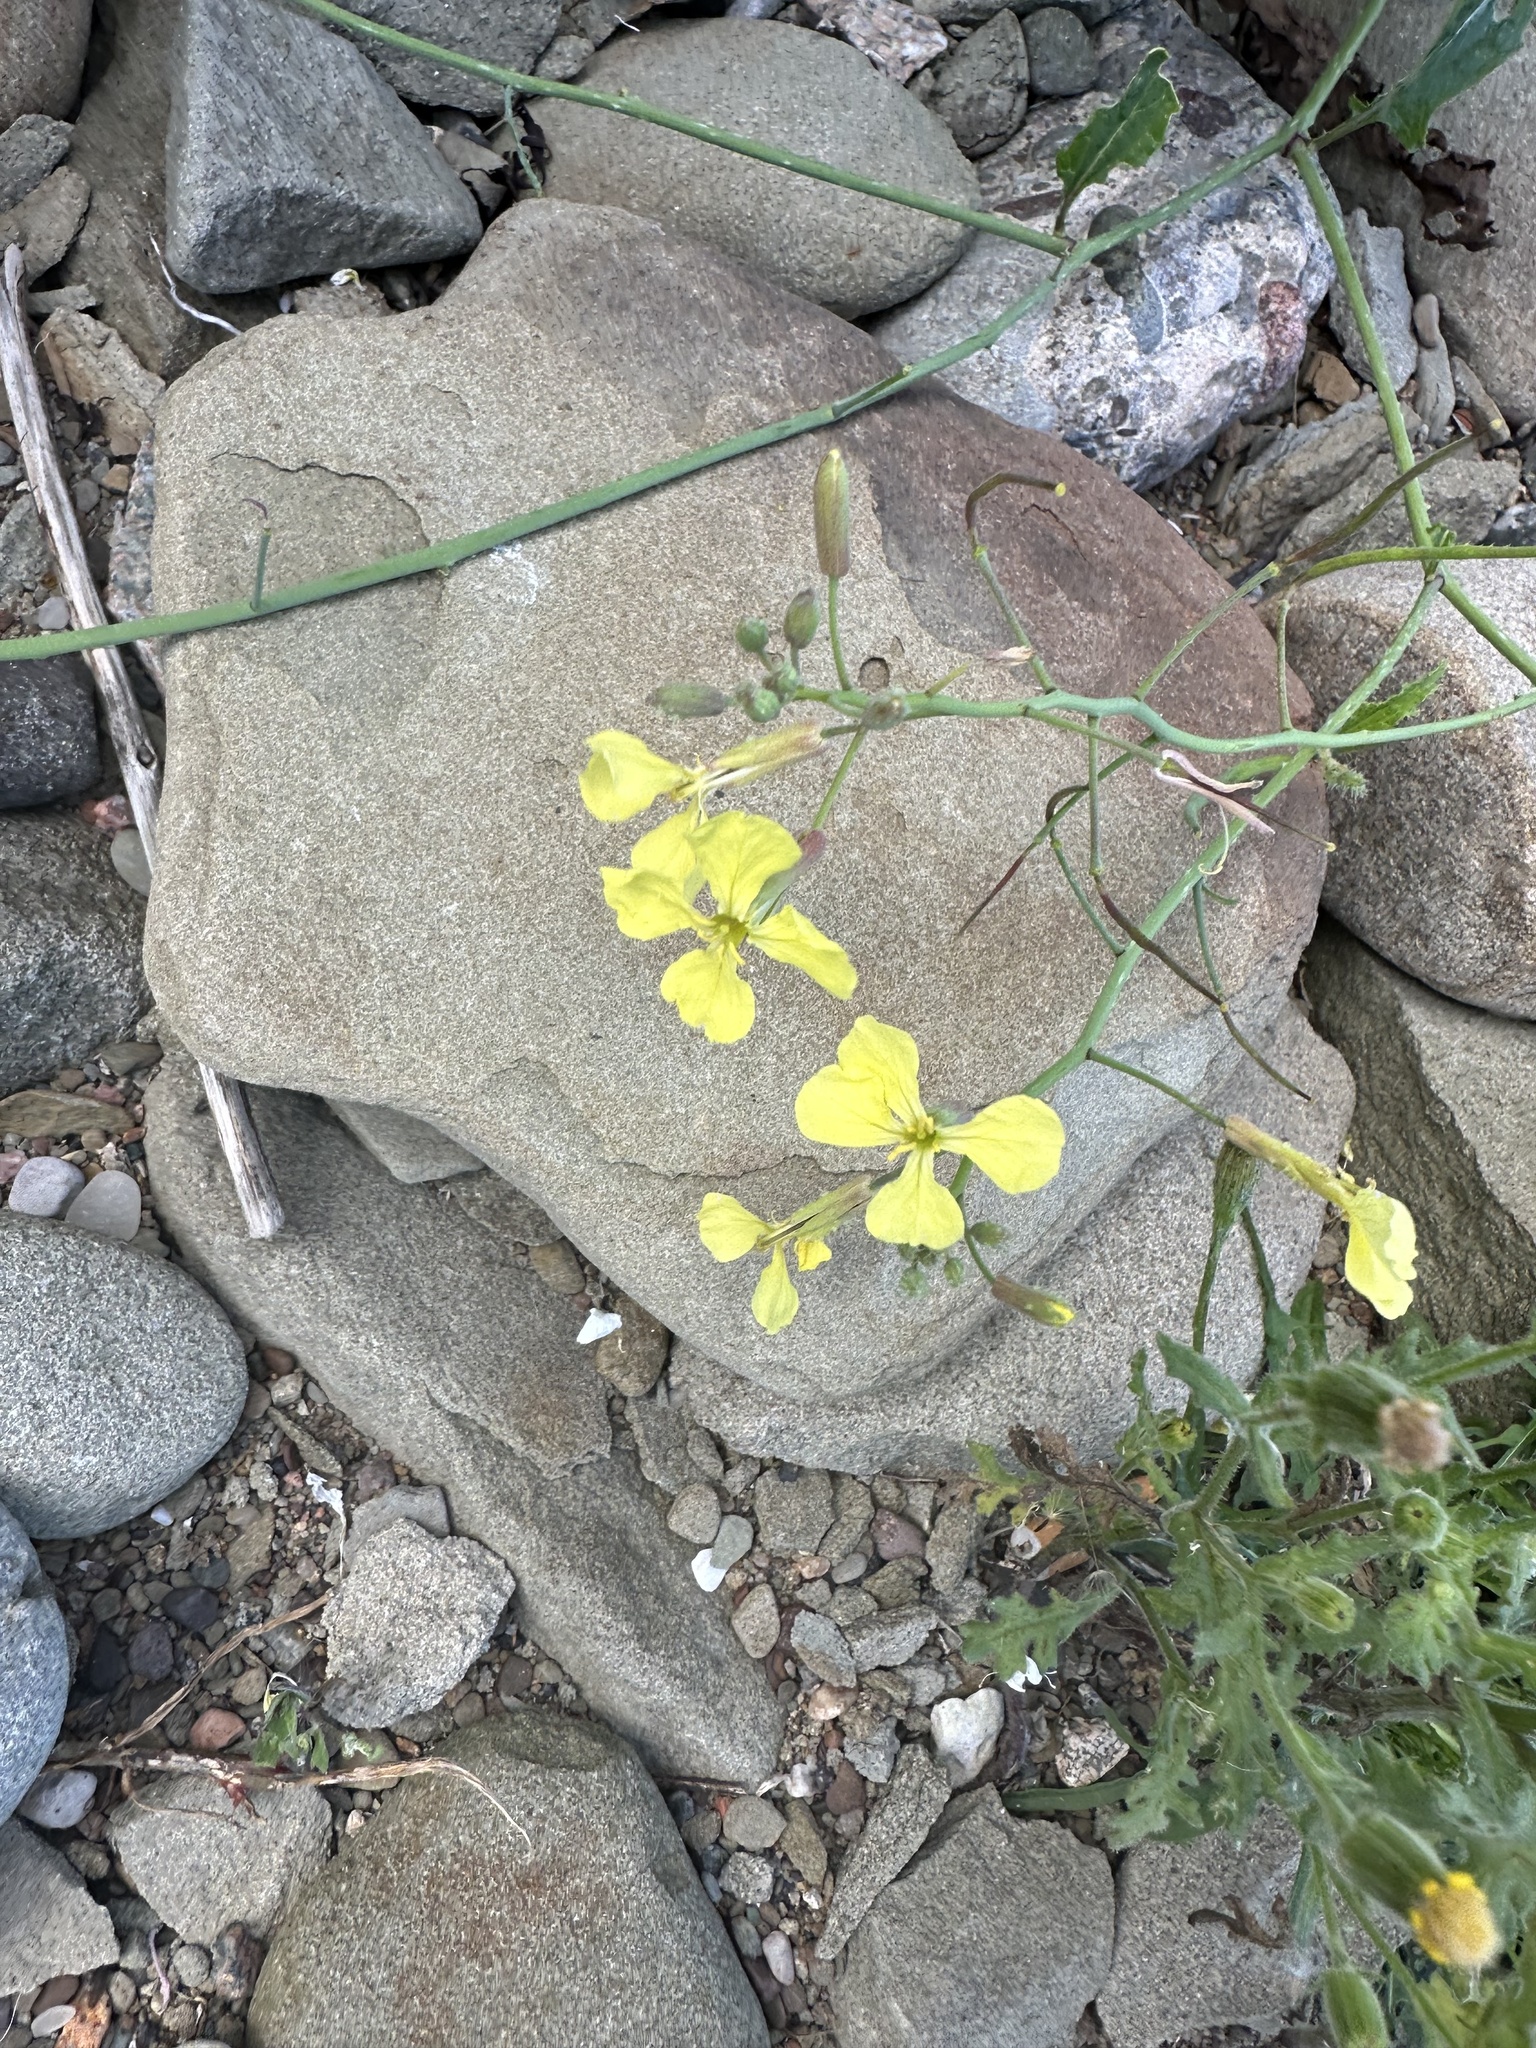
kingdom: Plantae
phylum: Tracheophyta
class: Magnoliopsida
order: Brassicales
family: Brassicaceae
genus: Raphanus
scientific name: Raphanus raphanistrum
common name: Wild radish
